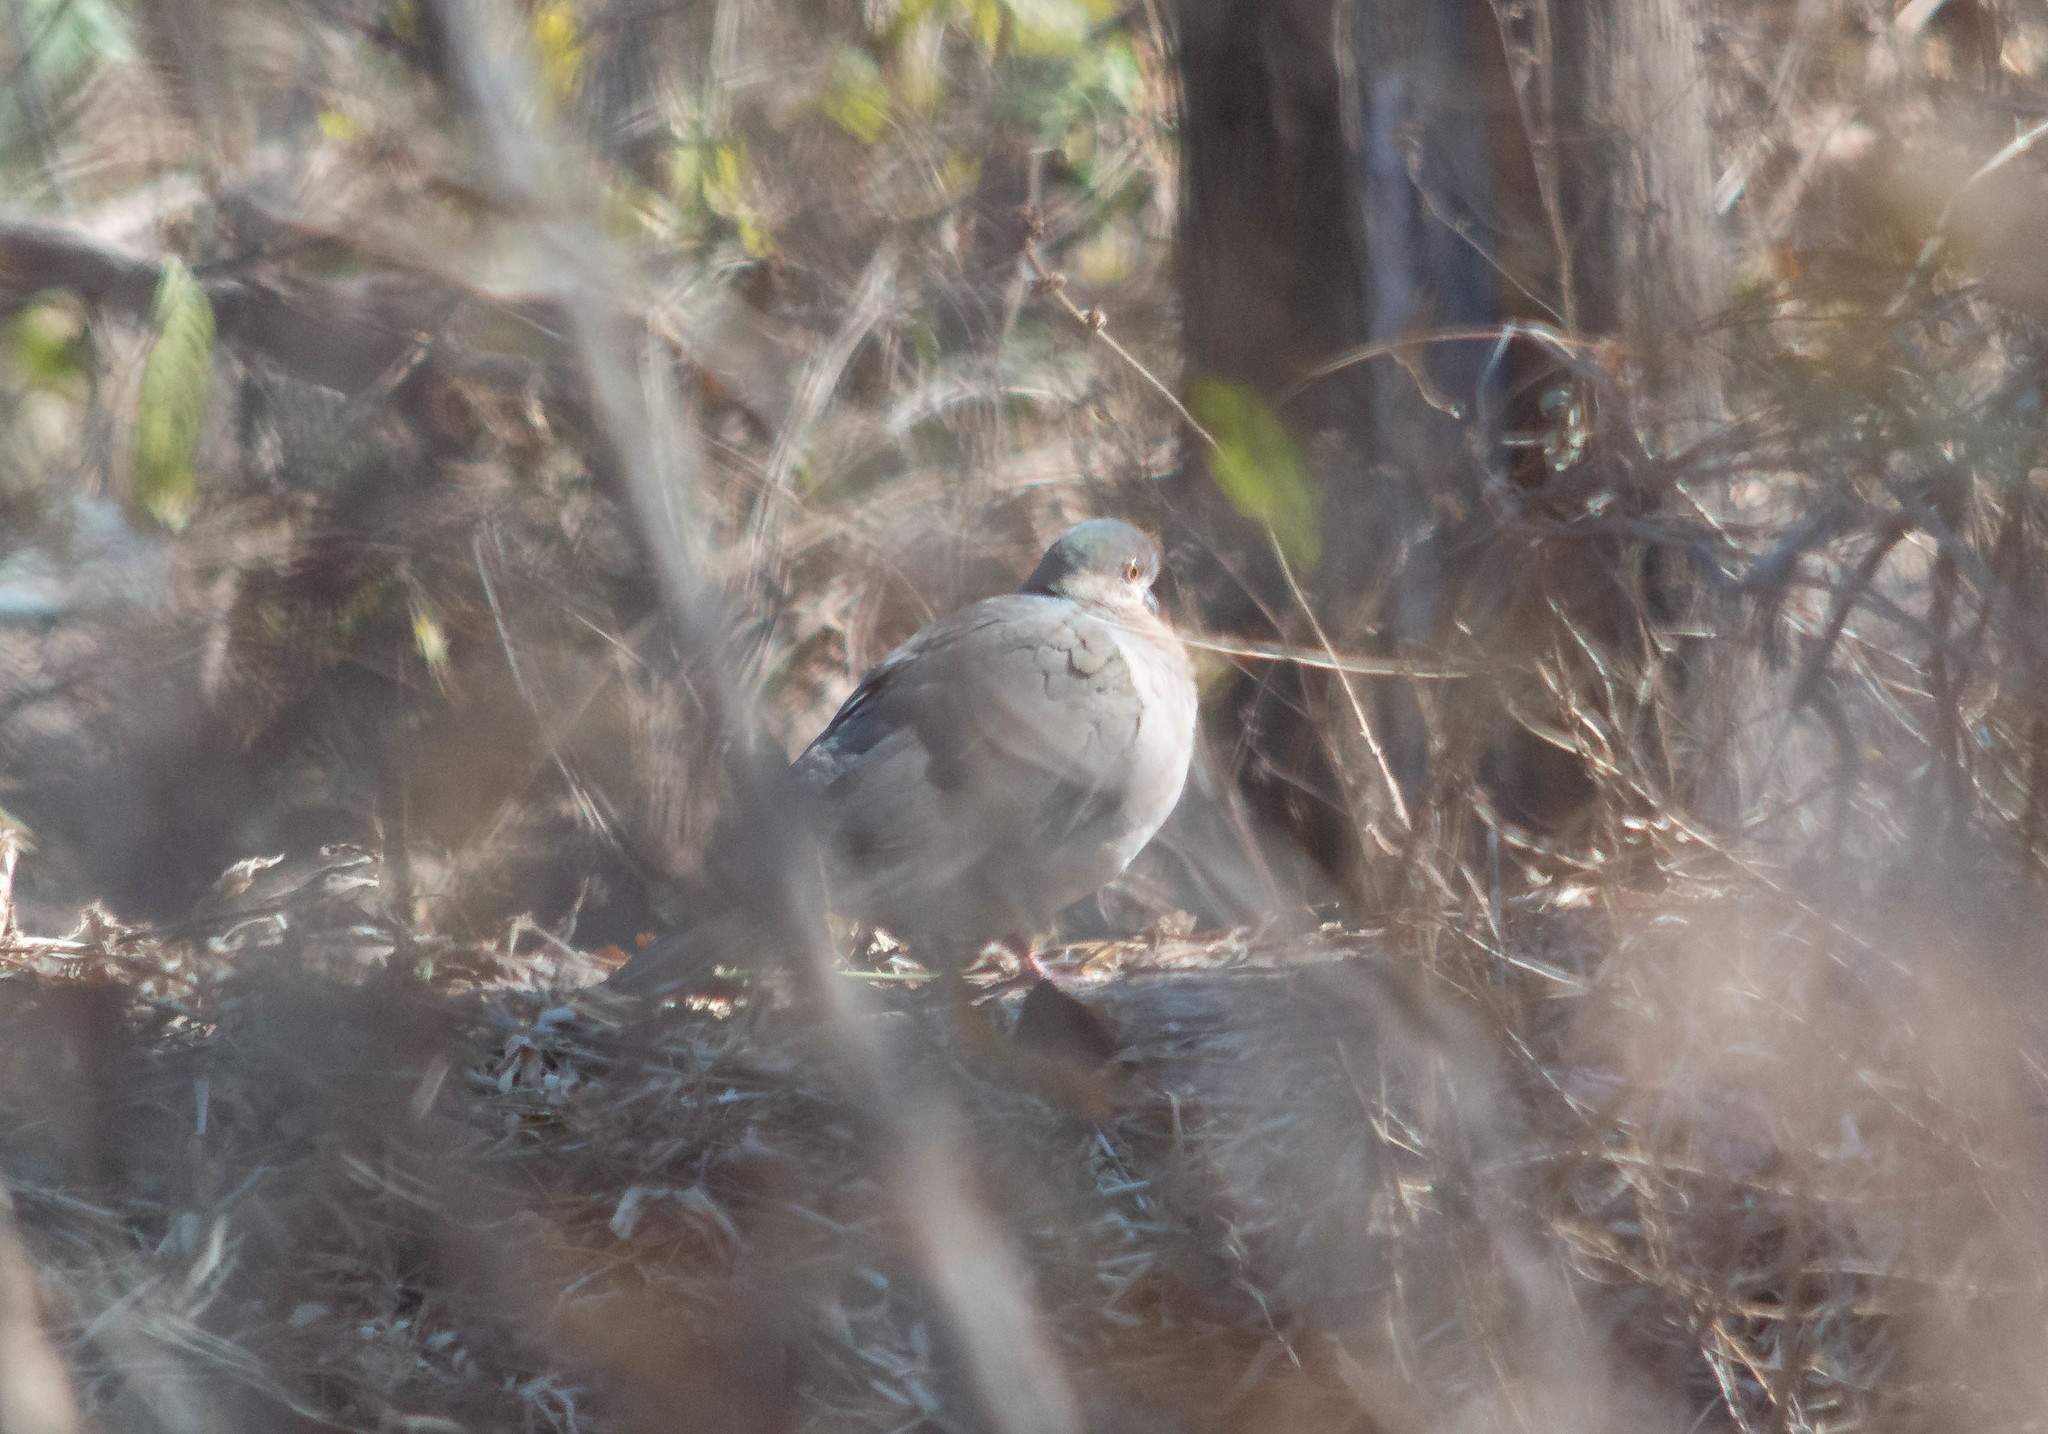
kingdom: Animalia
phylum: Chordata
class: Aves
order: Columbiformes
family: Columbidae
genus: Leptotila
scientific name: Leptotila verreauxi
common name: White-tipped dove
